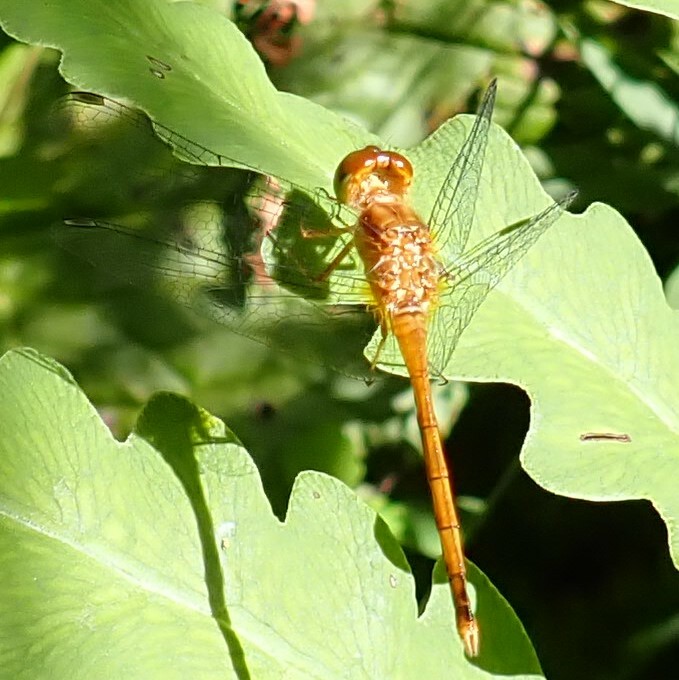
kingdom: Animalia
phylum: Arthropoda
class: Insecta
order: Odonata
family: Libellulidae
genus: Sympetrum
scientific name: Sympetrum vicinum
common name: Autumn meadowhawk
